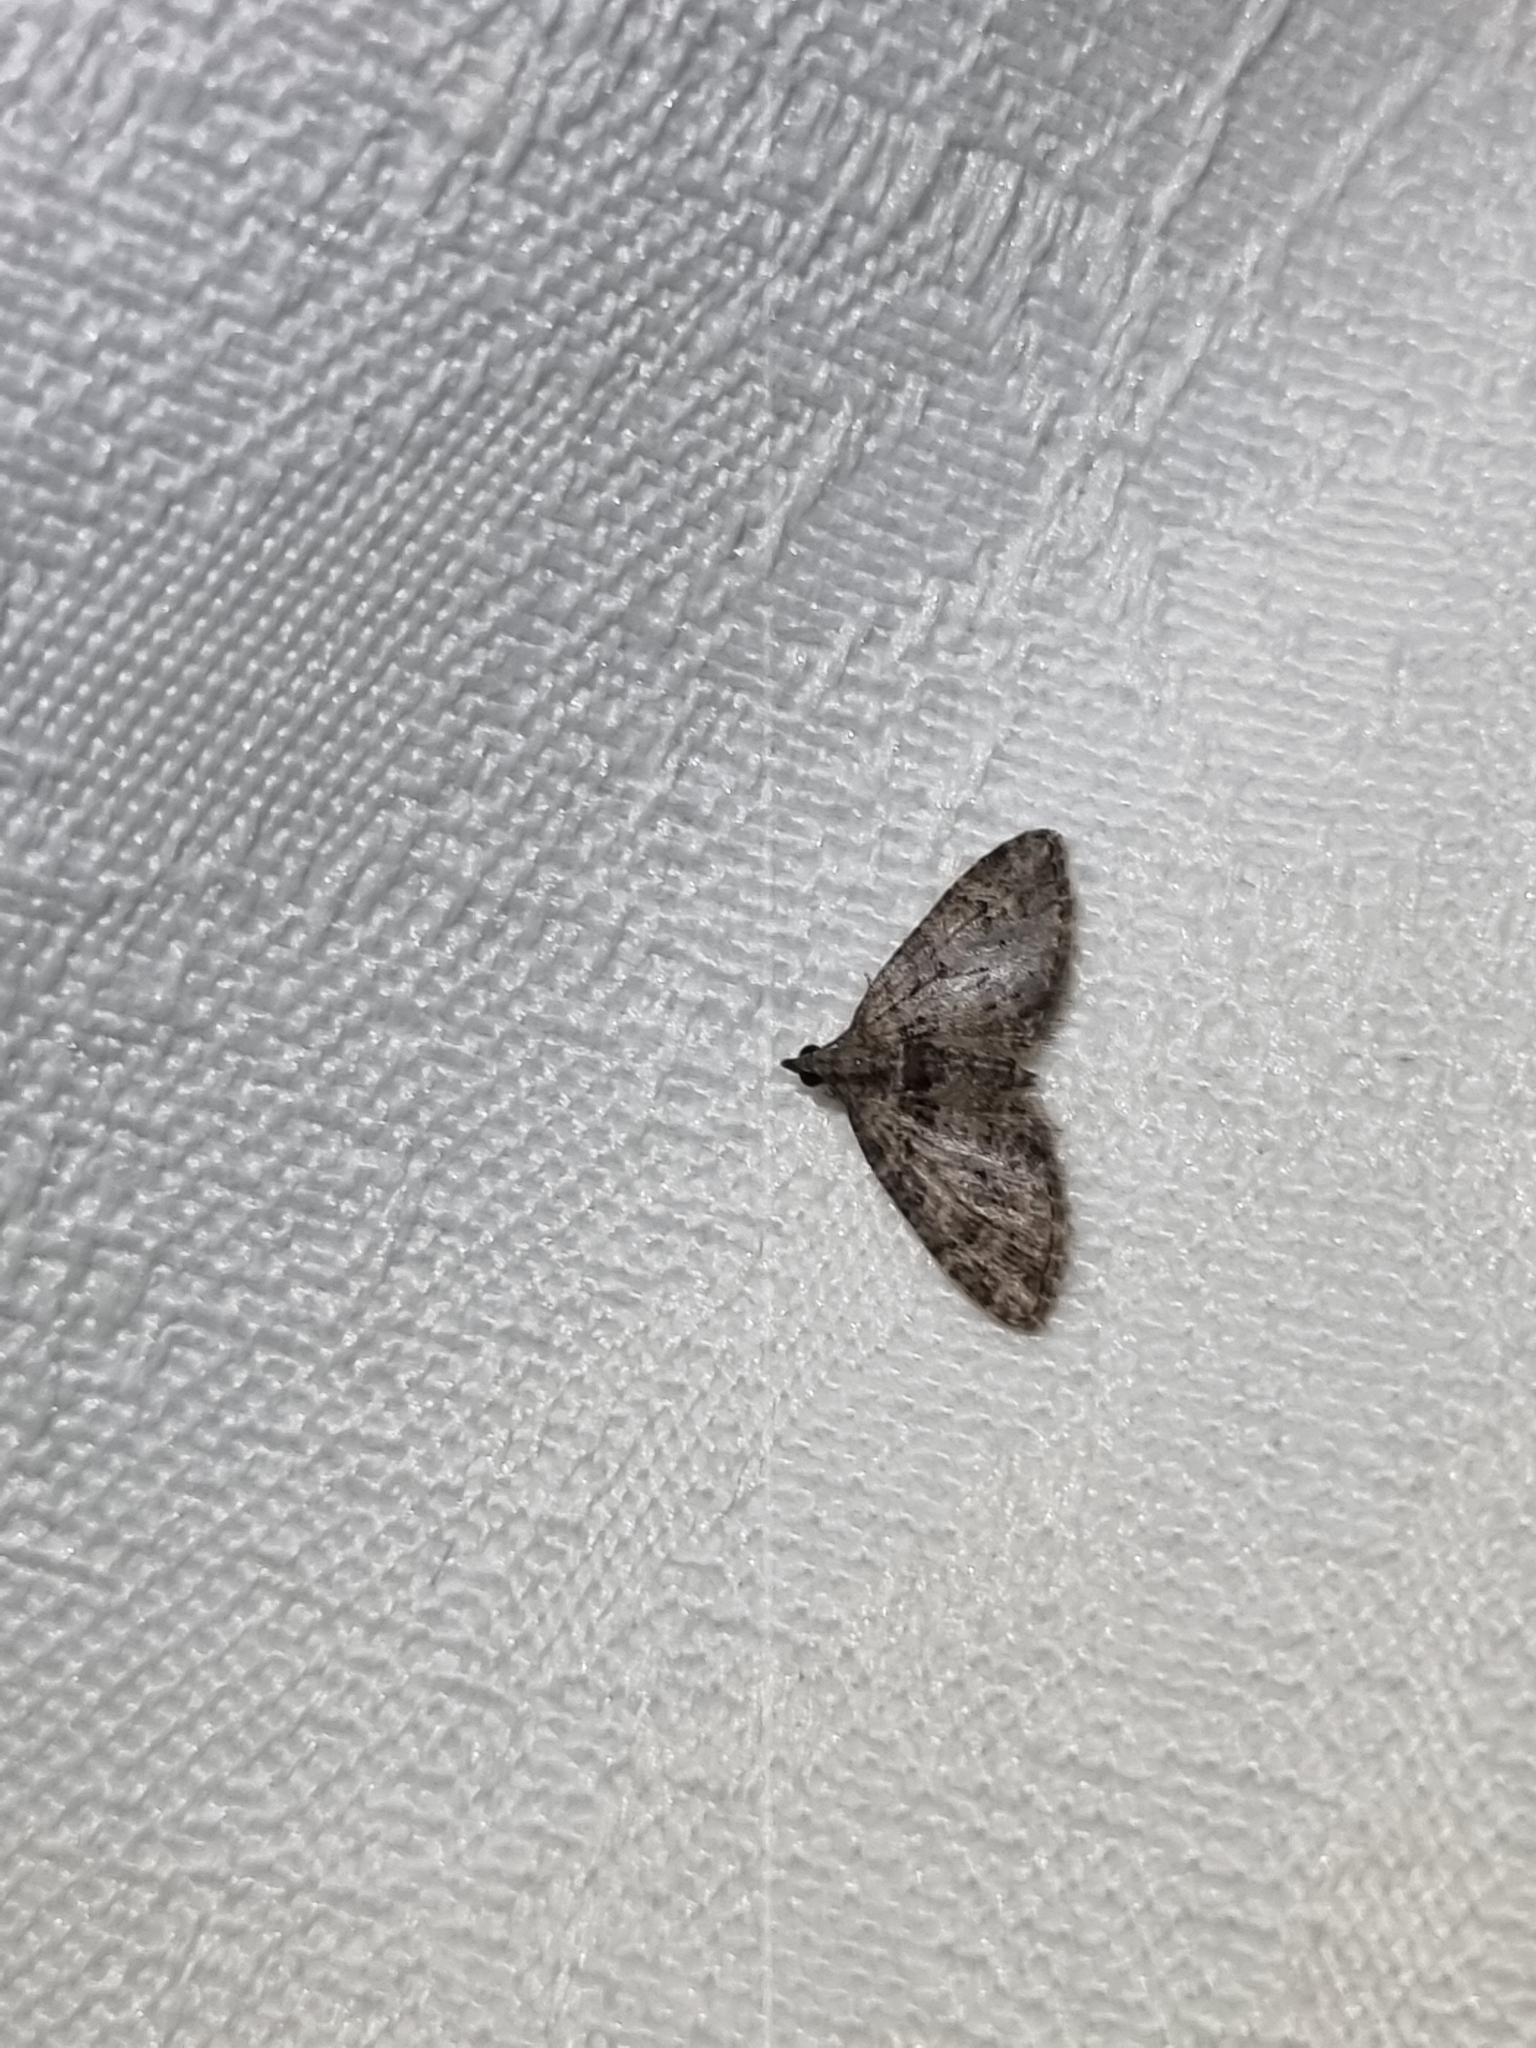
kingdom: Animalia
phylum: Arthropoda
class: Insecta
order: Lepidoptera
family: Geometridae
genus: Phrissogonus
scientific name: Phrissogonus laticostata
